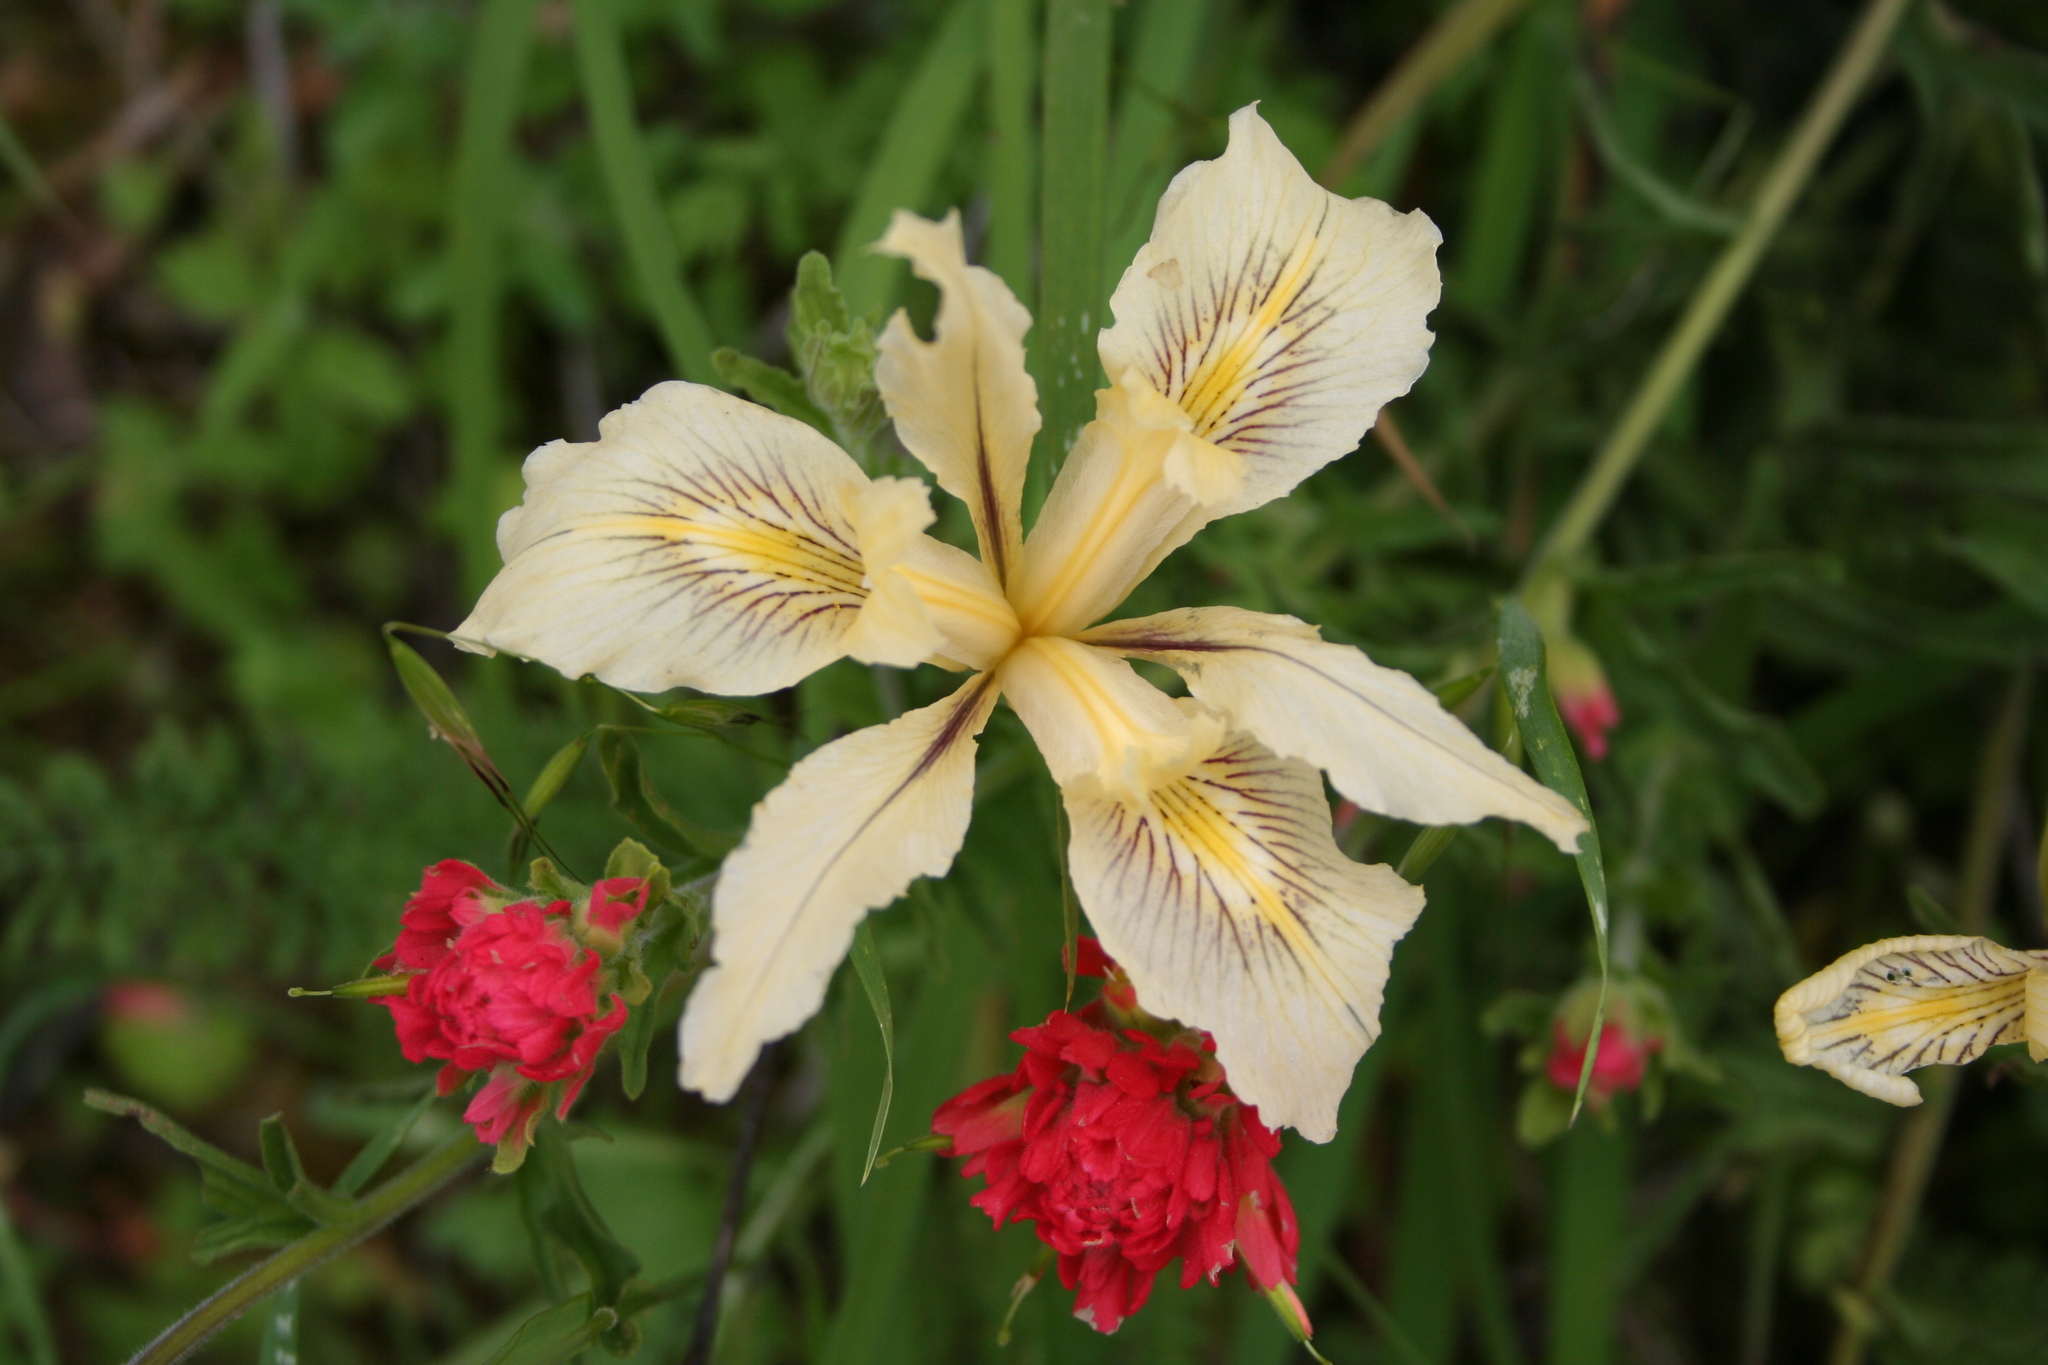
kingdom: Plantae
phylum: Tracheophyta
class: Liliopsida
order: Asparagales
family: Iridaceae
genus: Iris
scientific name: Iris fernaldii
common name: Fernald's iris
